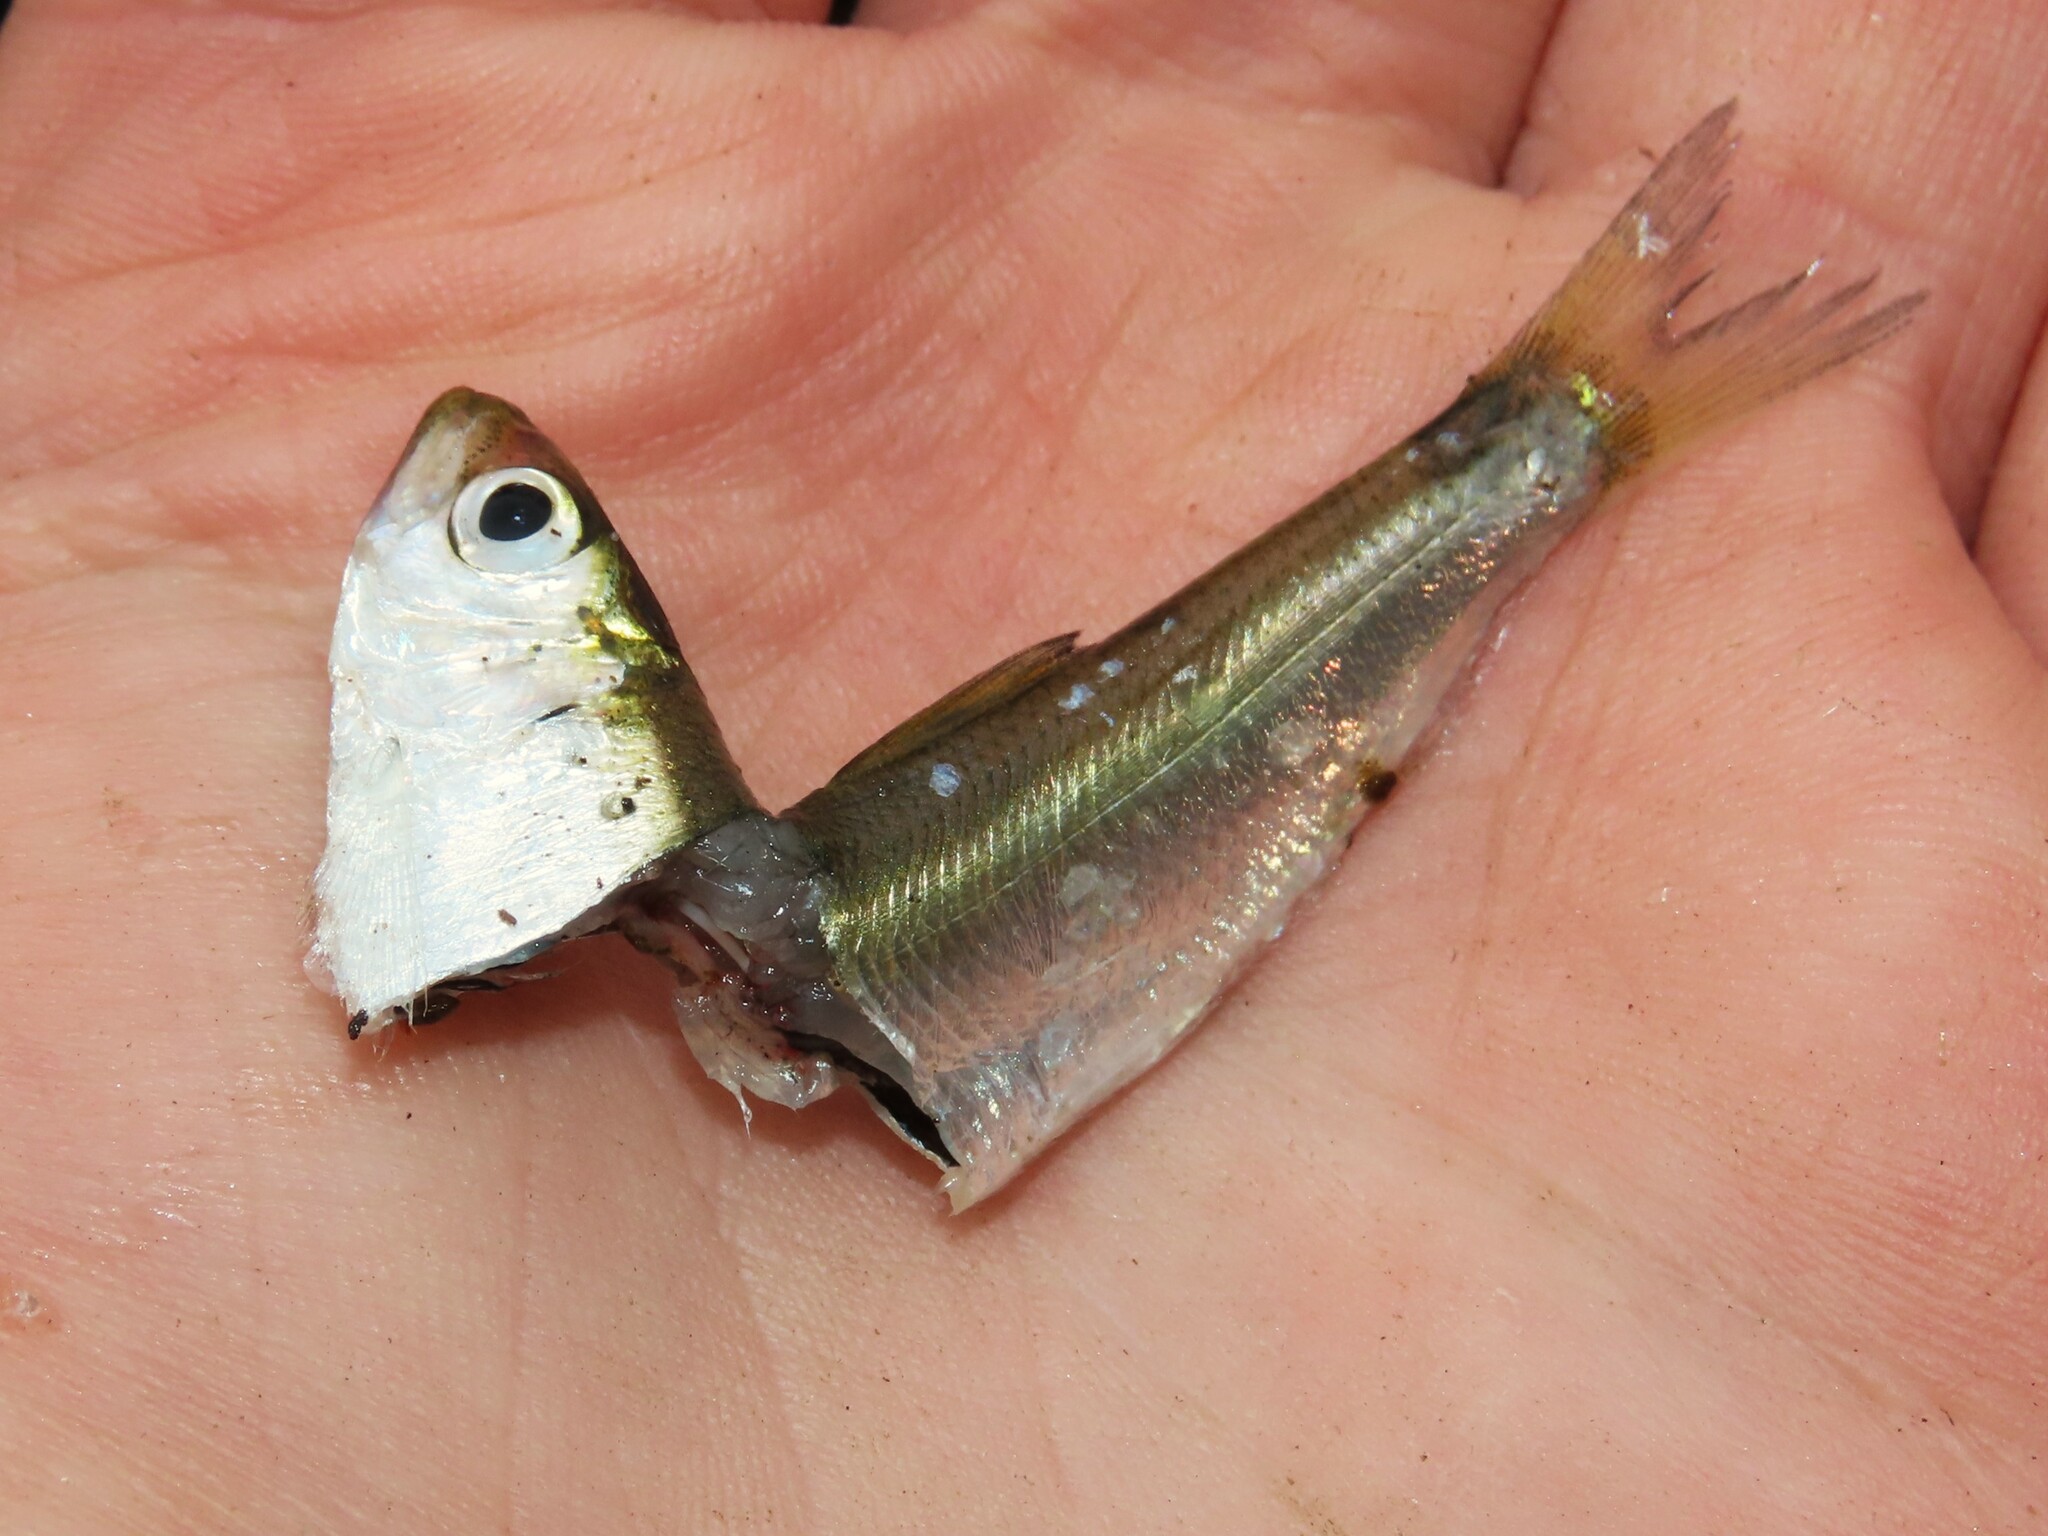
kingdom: Animalia
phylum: Chordata
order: Clupeiformes
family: Clupeidae
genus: Alosa
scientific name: Alosa aestivalis
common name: Blueback herring
